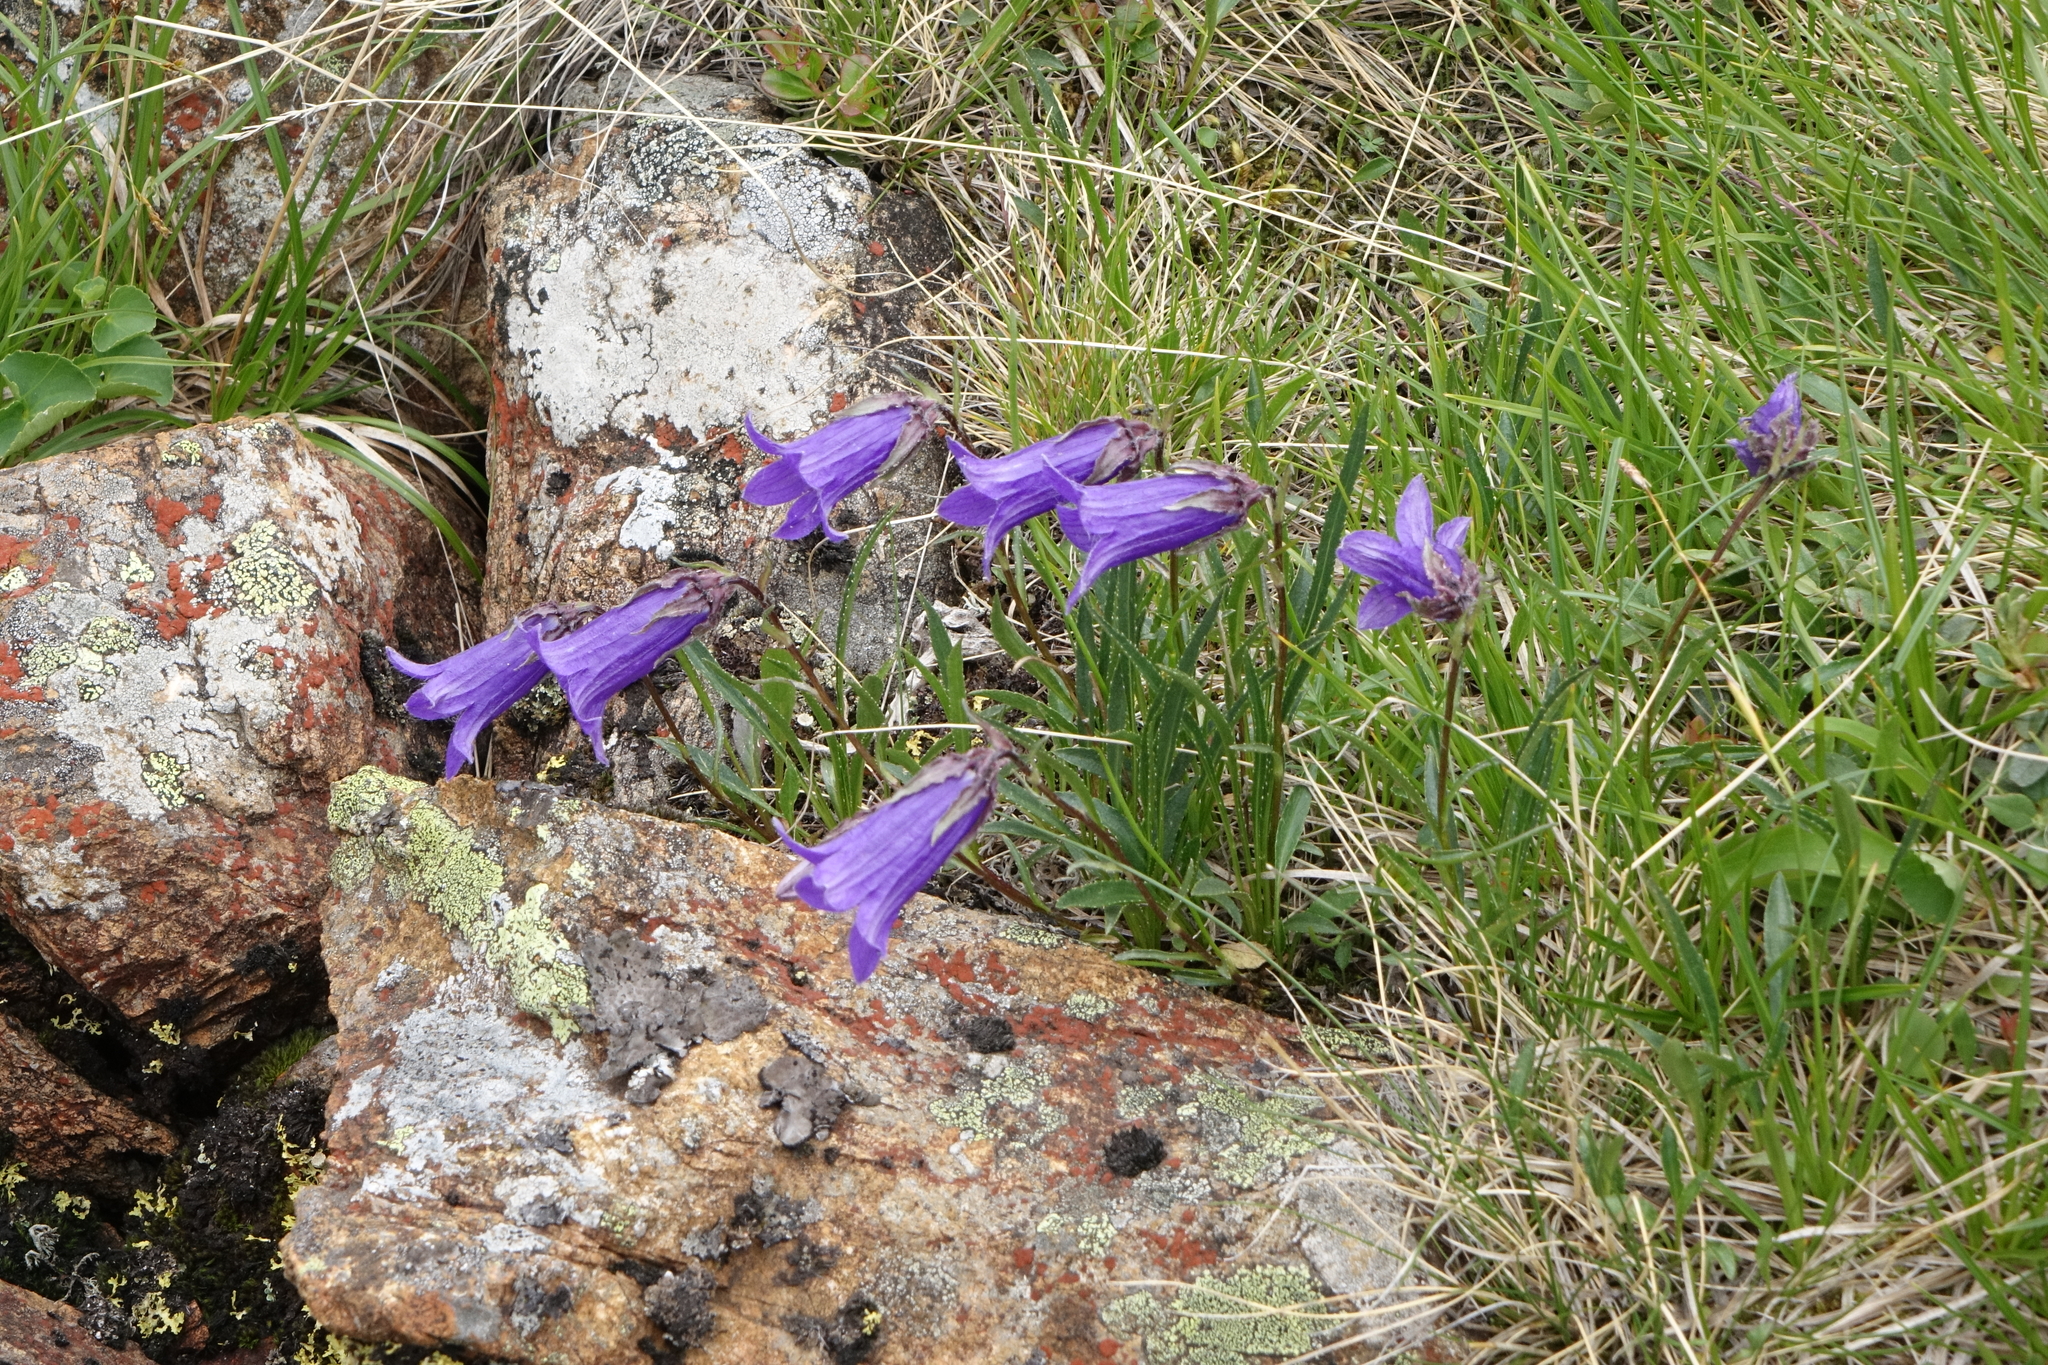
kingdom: Plantae
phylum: Tracheophyta
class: Magnoliopsida
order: Asterales
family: Campanulaceae
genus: Campanula
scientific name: Campanula dasyantha
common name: Hairyflower bellflower
